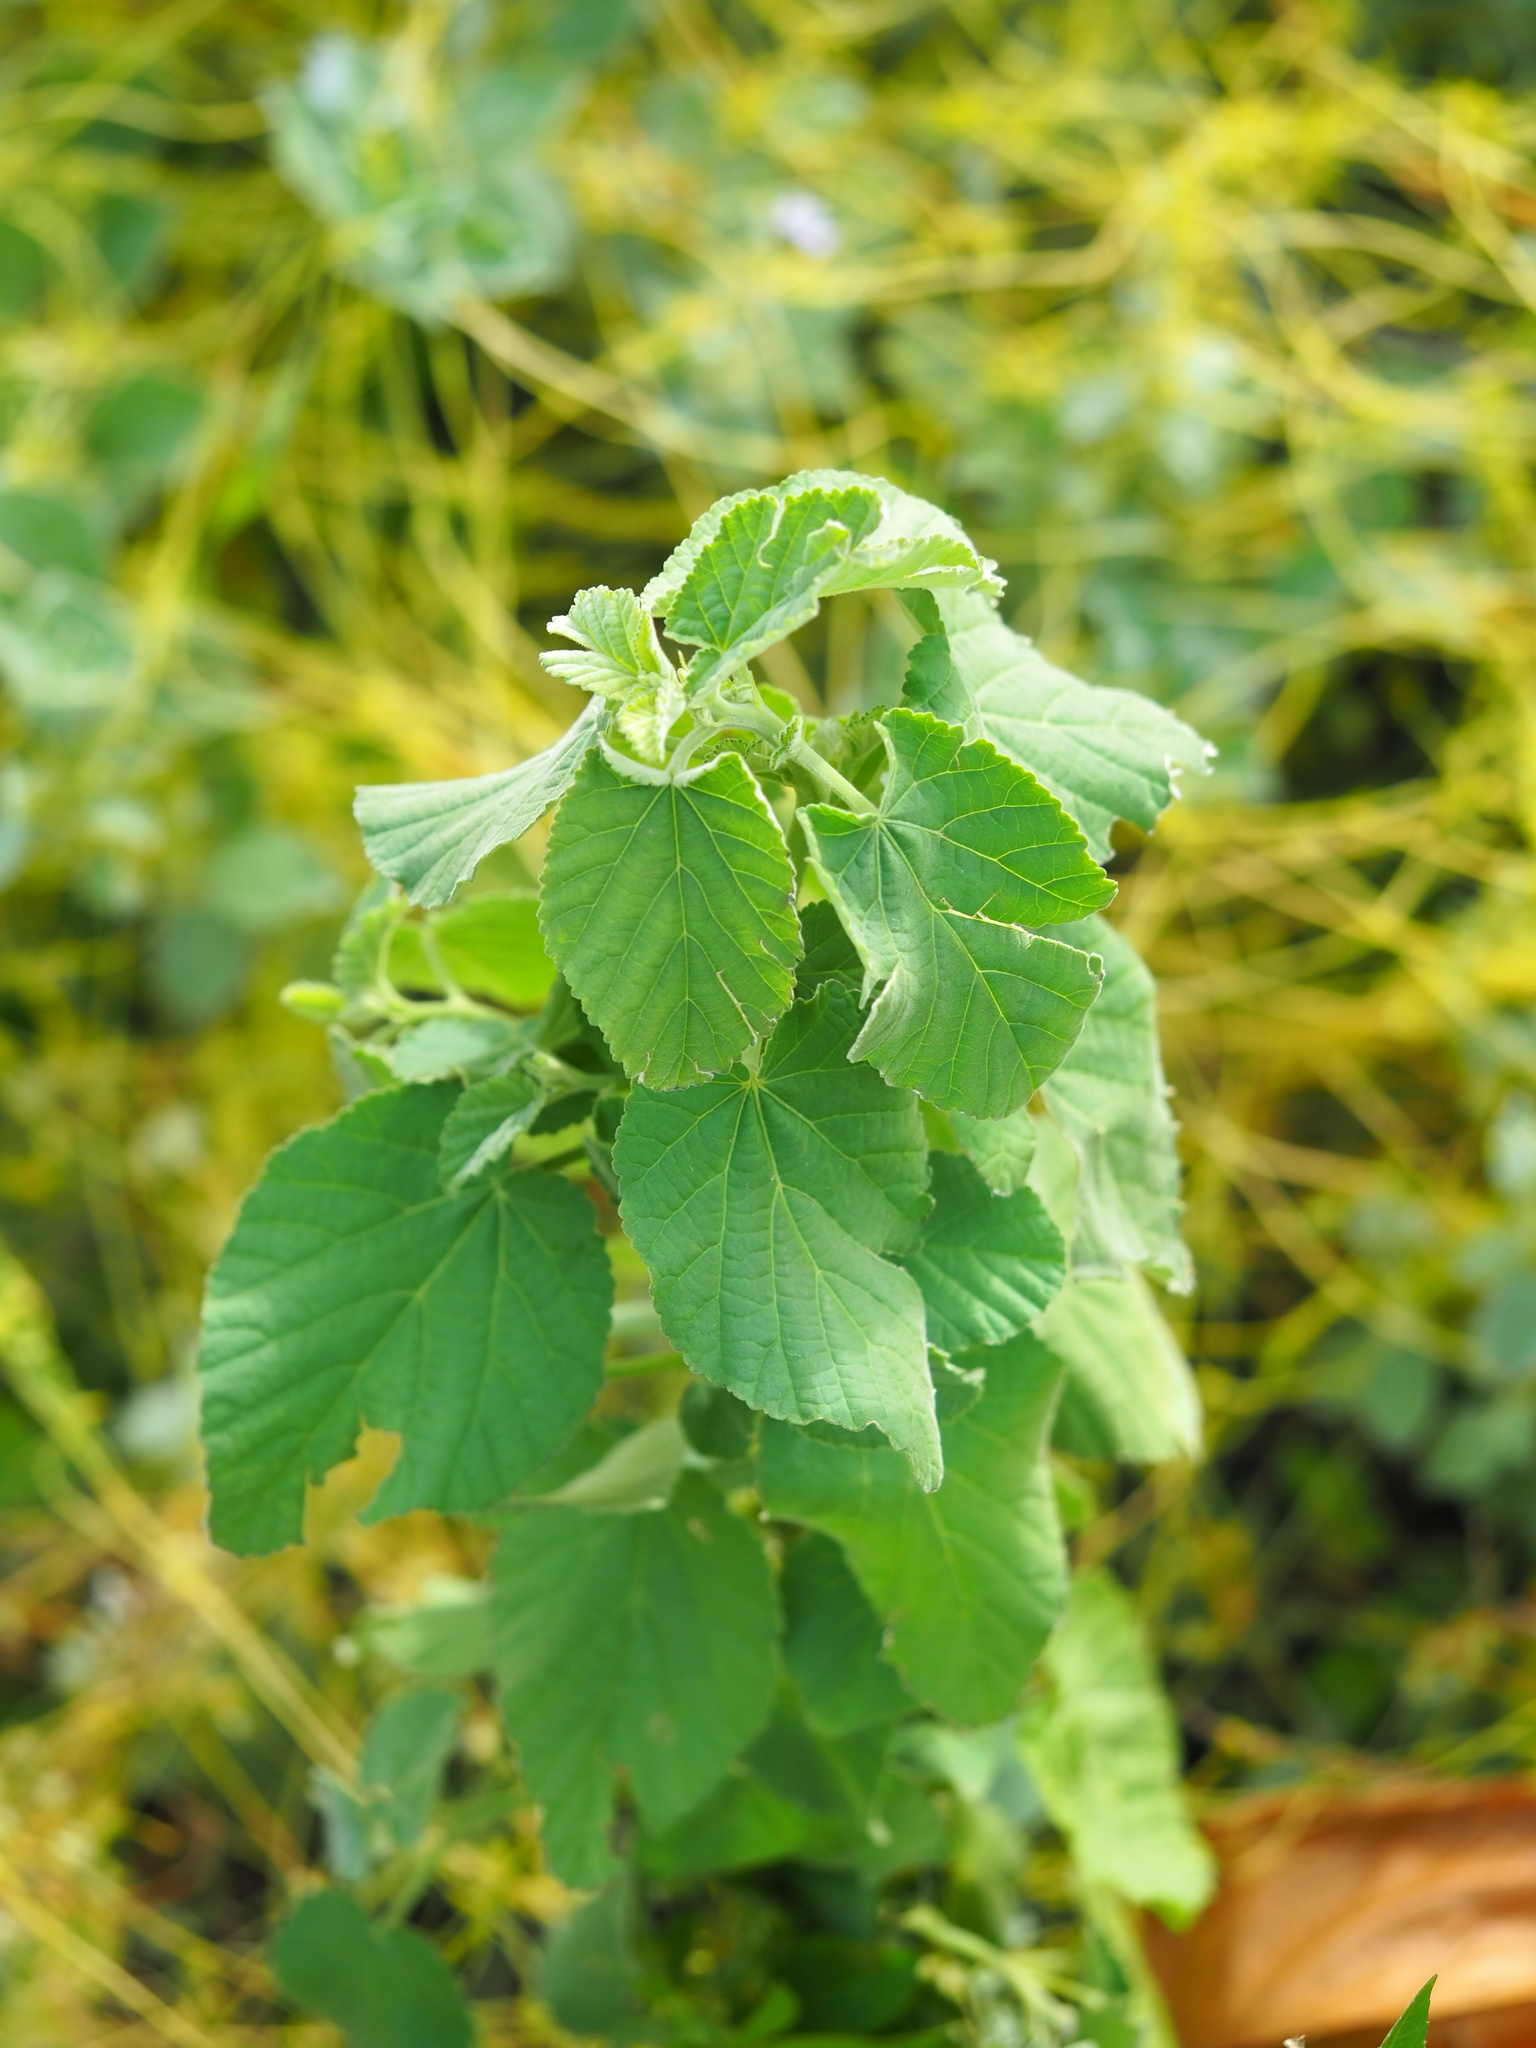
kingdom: Plantae
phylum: Tracheophyta
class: Magnoliopsida
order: Malvales
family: Malvaceae
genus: Sida
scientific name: Sida cordifolia
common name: Ilima
